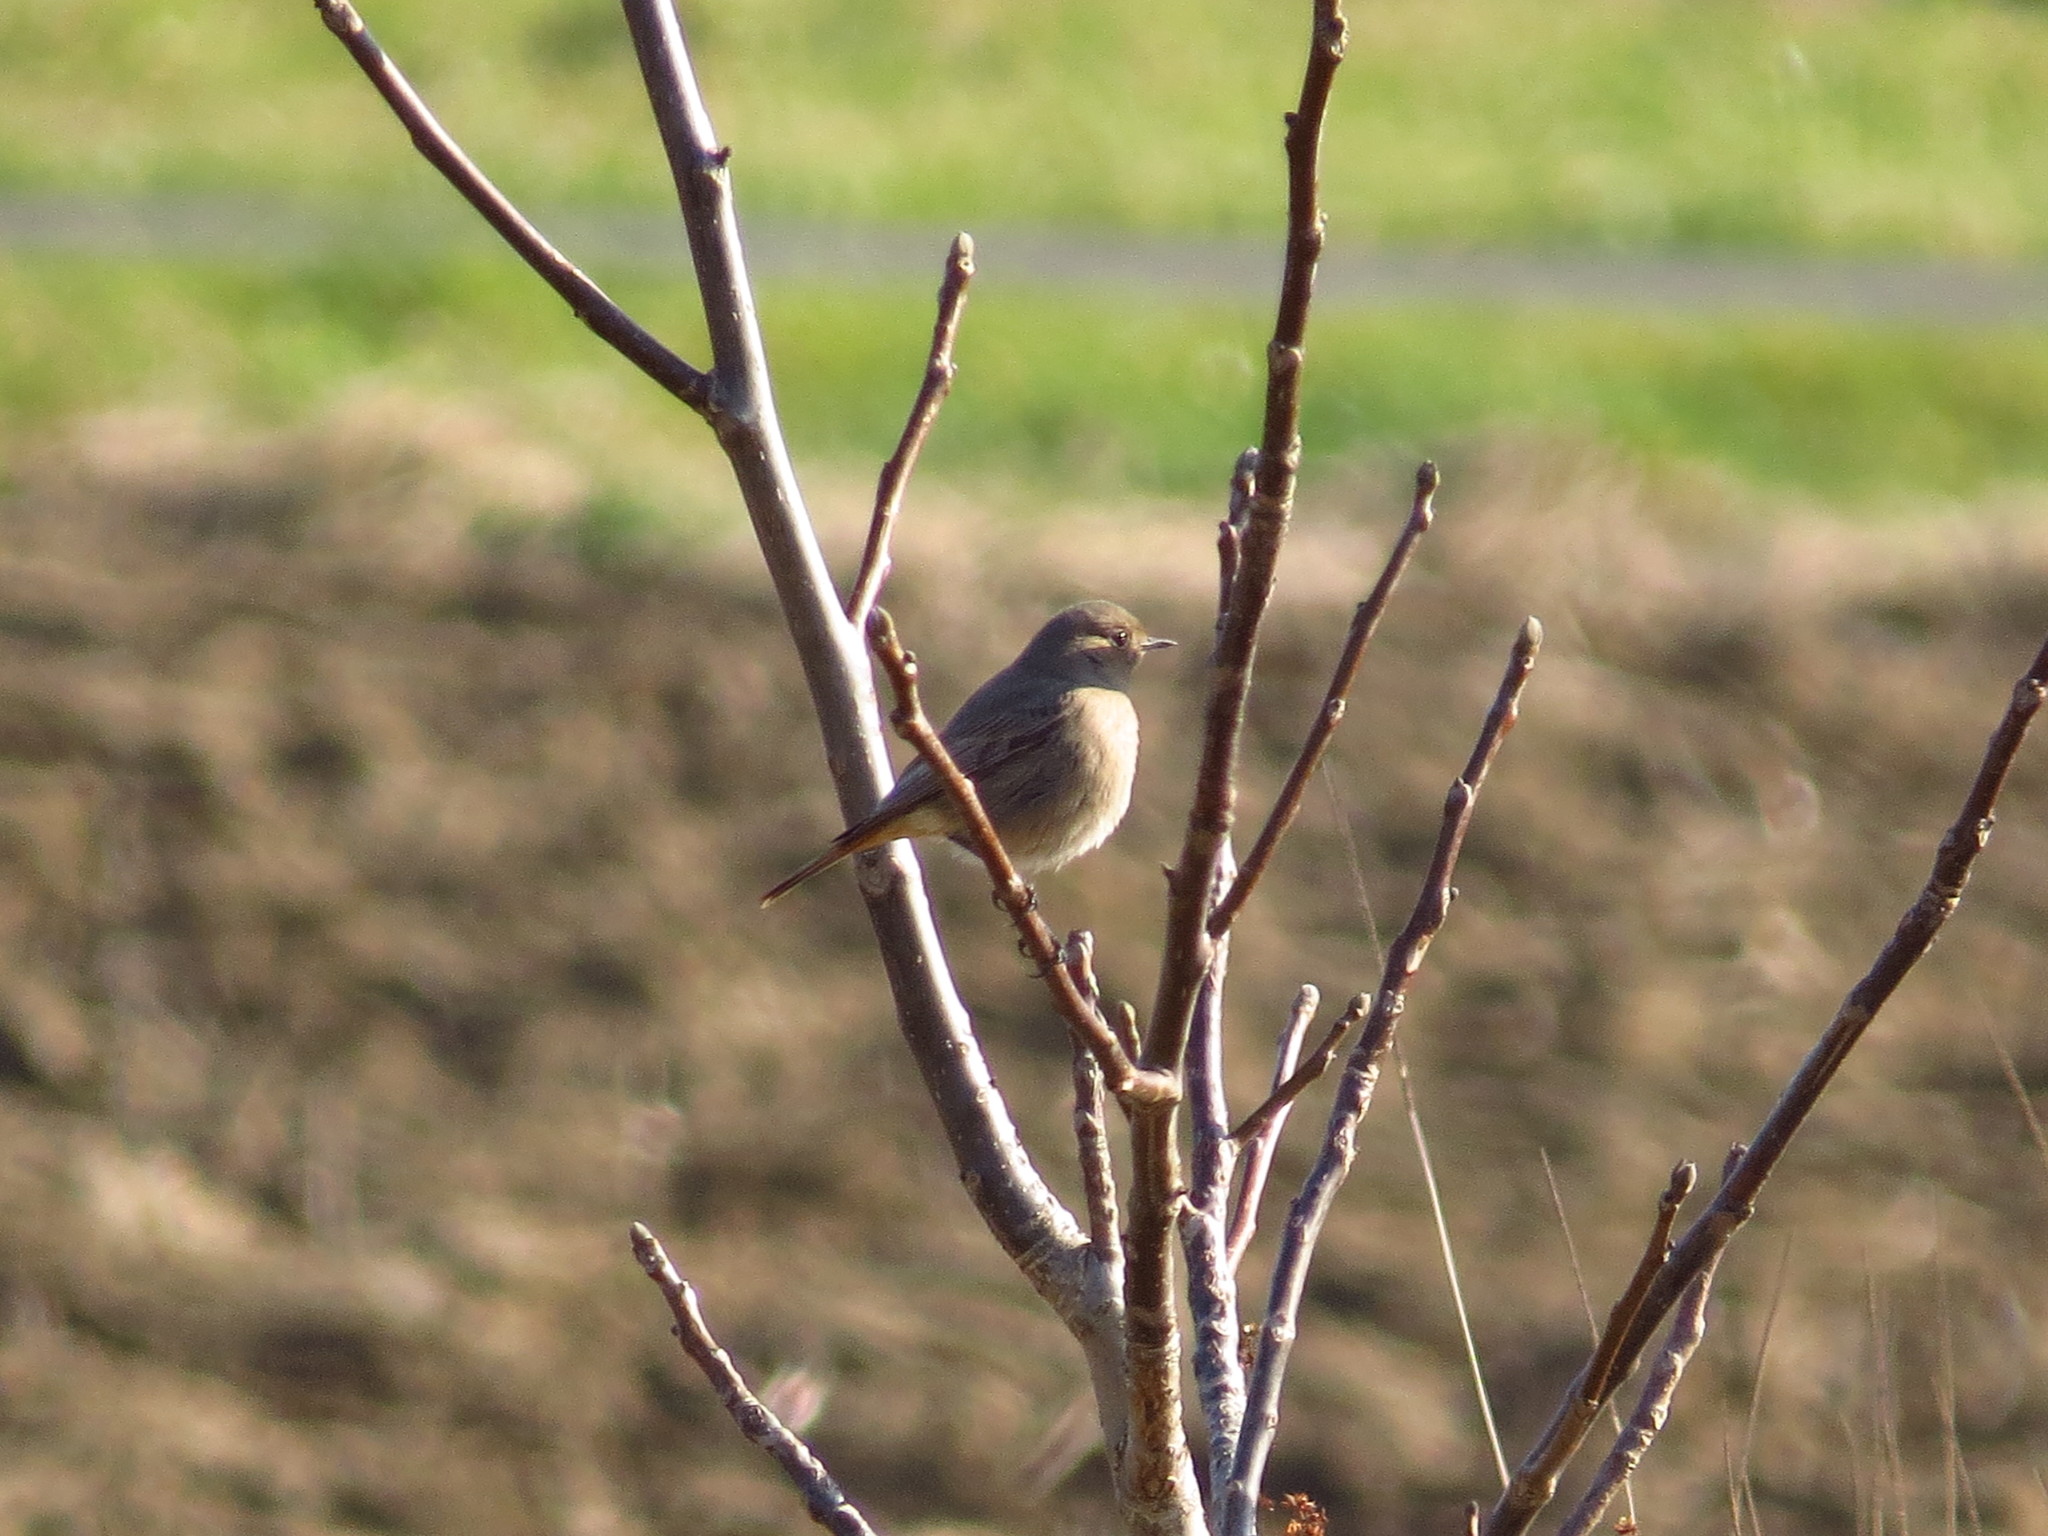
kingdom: Animalia
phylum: Chordata
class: Aves
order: Passeriformes
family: Muscicapidae
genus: Phoenicurus
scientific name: Phoenicurus ochruros
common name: Black redstart
